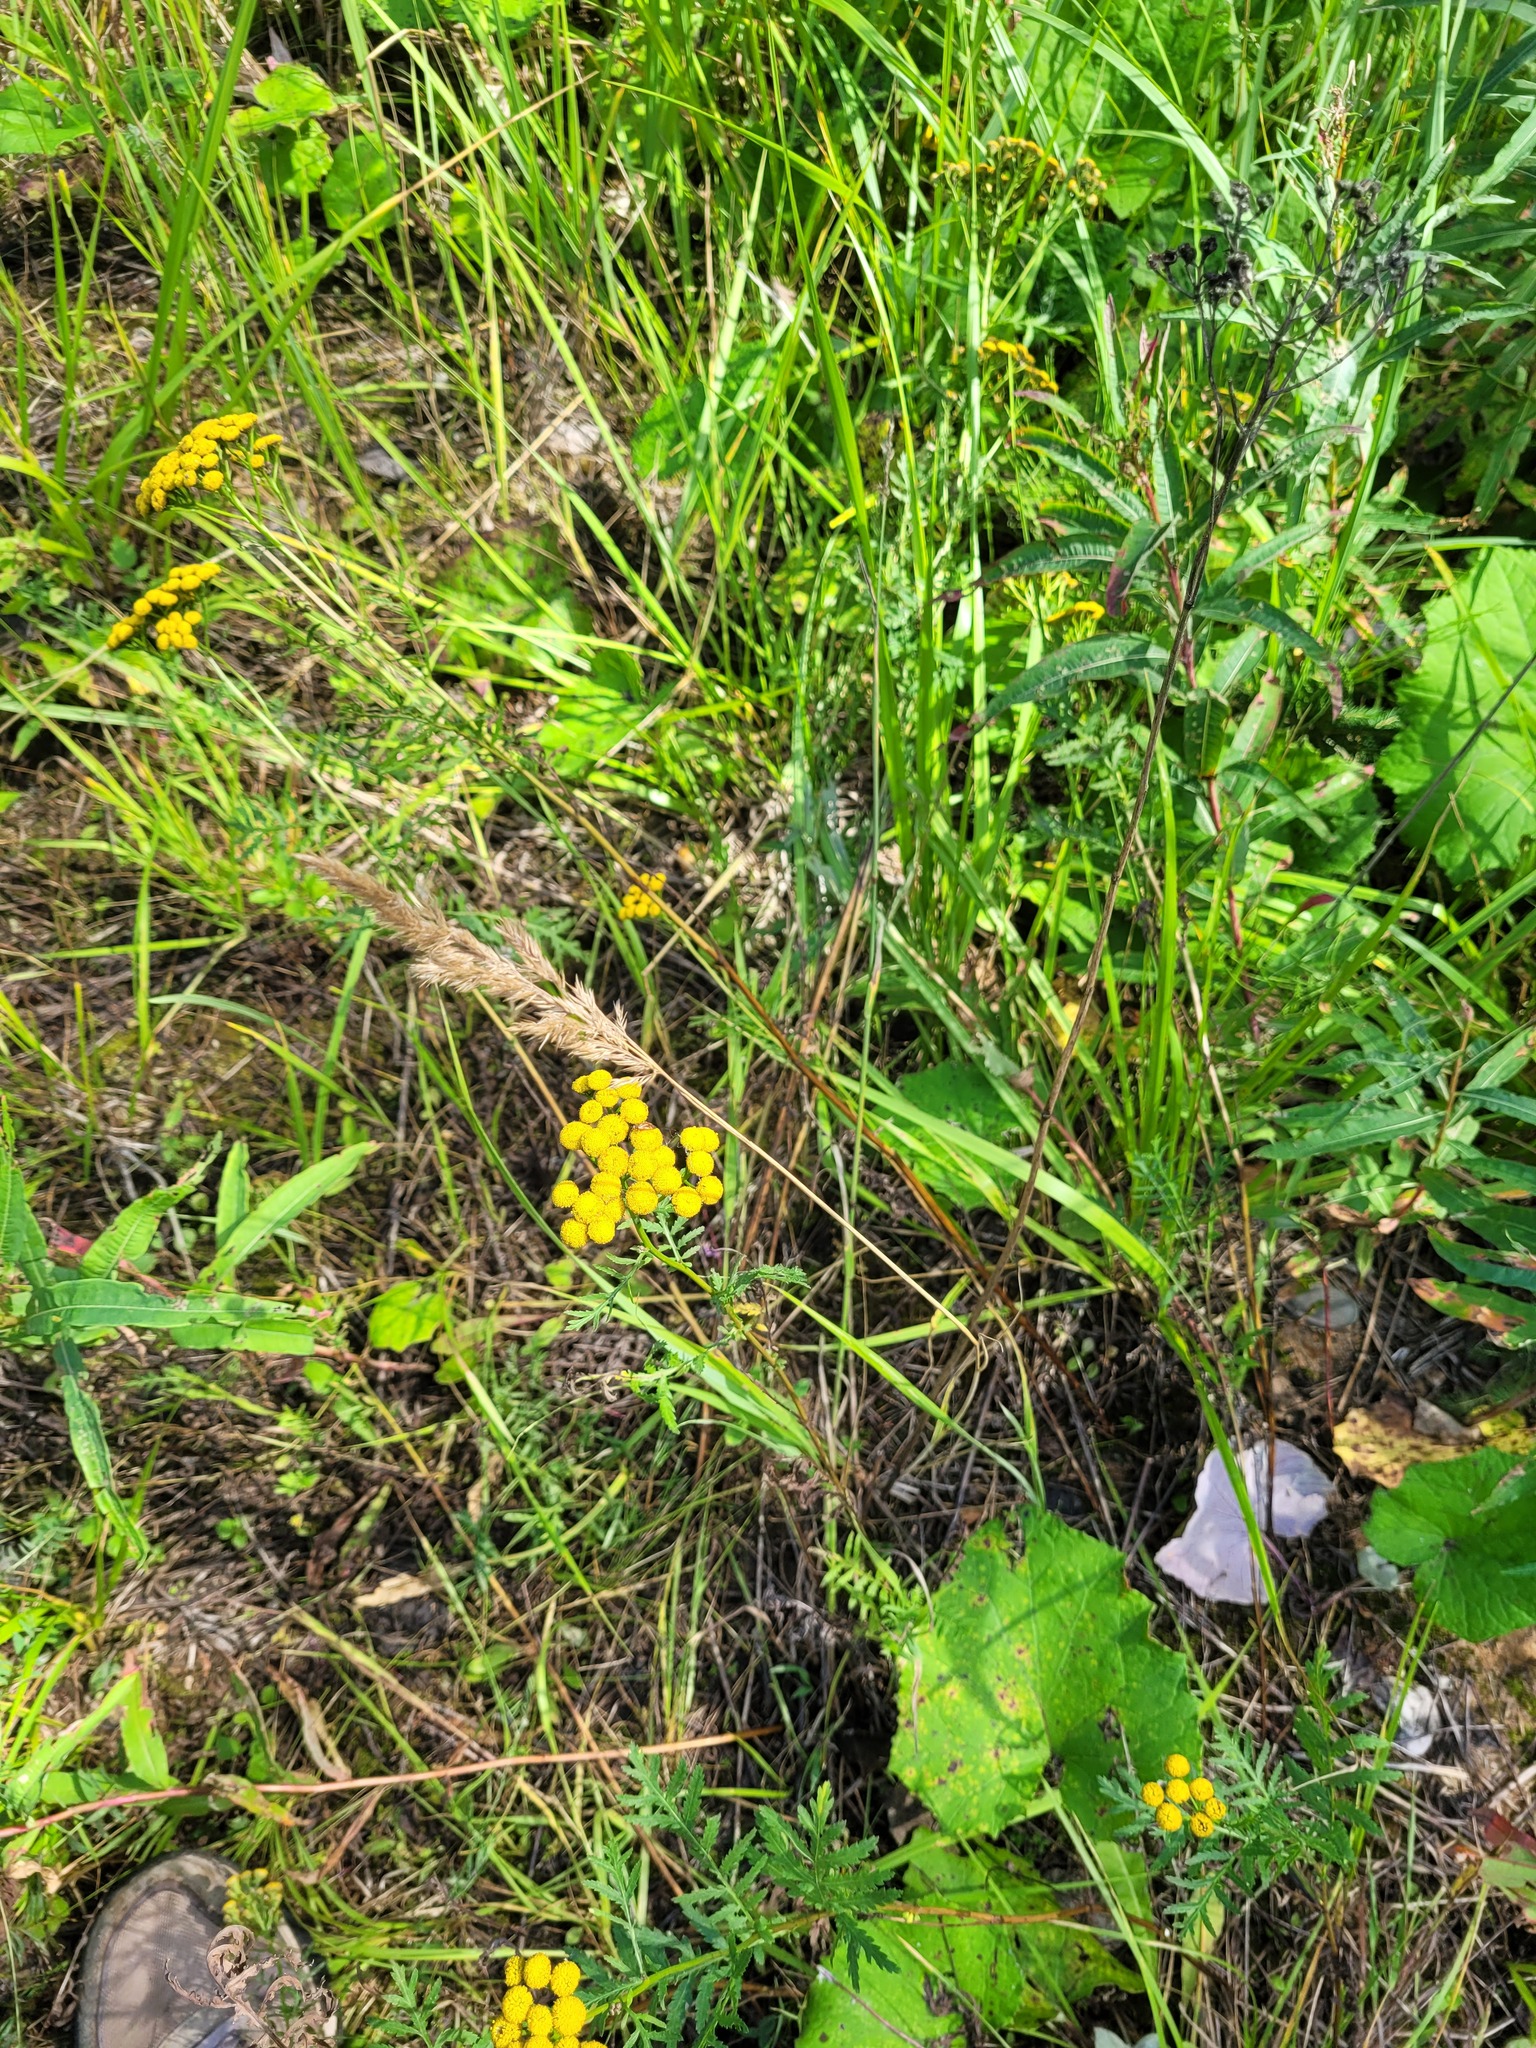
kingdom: Plantae
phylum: Tracheophyta
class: Magnoliopsida
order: Asterales
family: Asteraceae
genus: Tanacetum
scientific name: Tanacetum vulgare
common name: Common tansy
